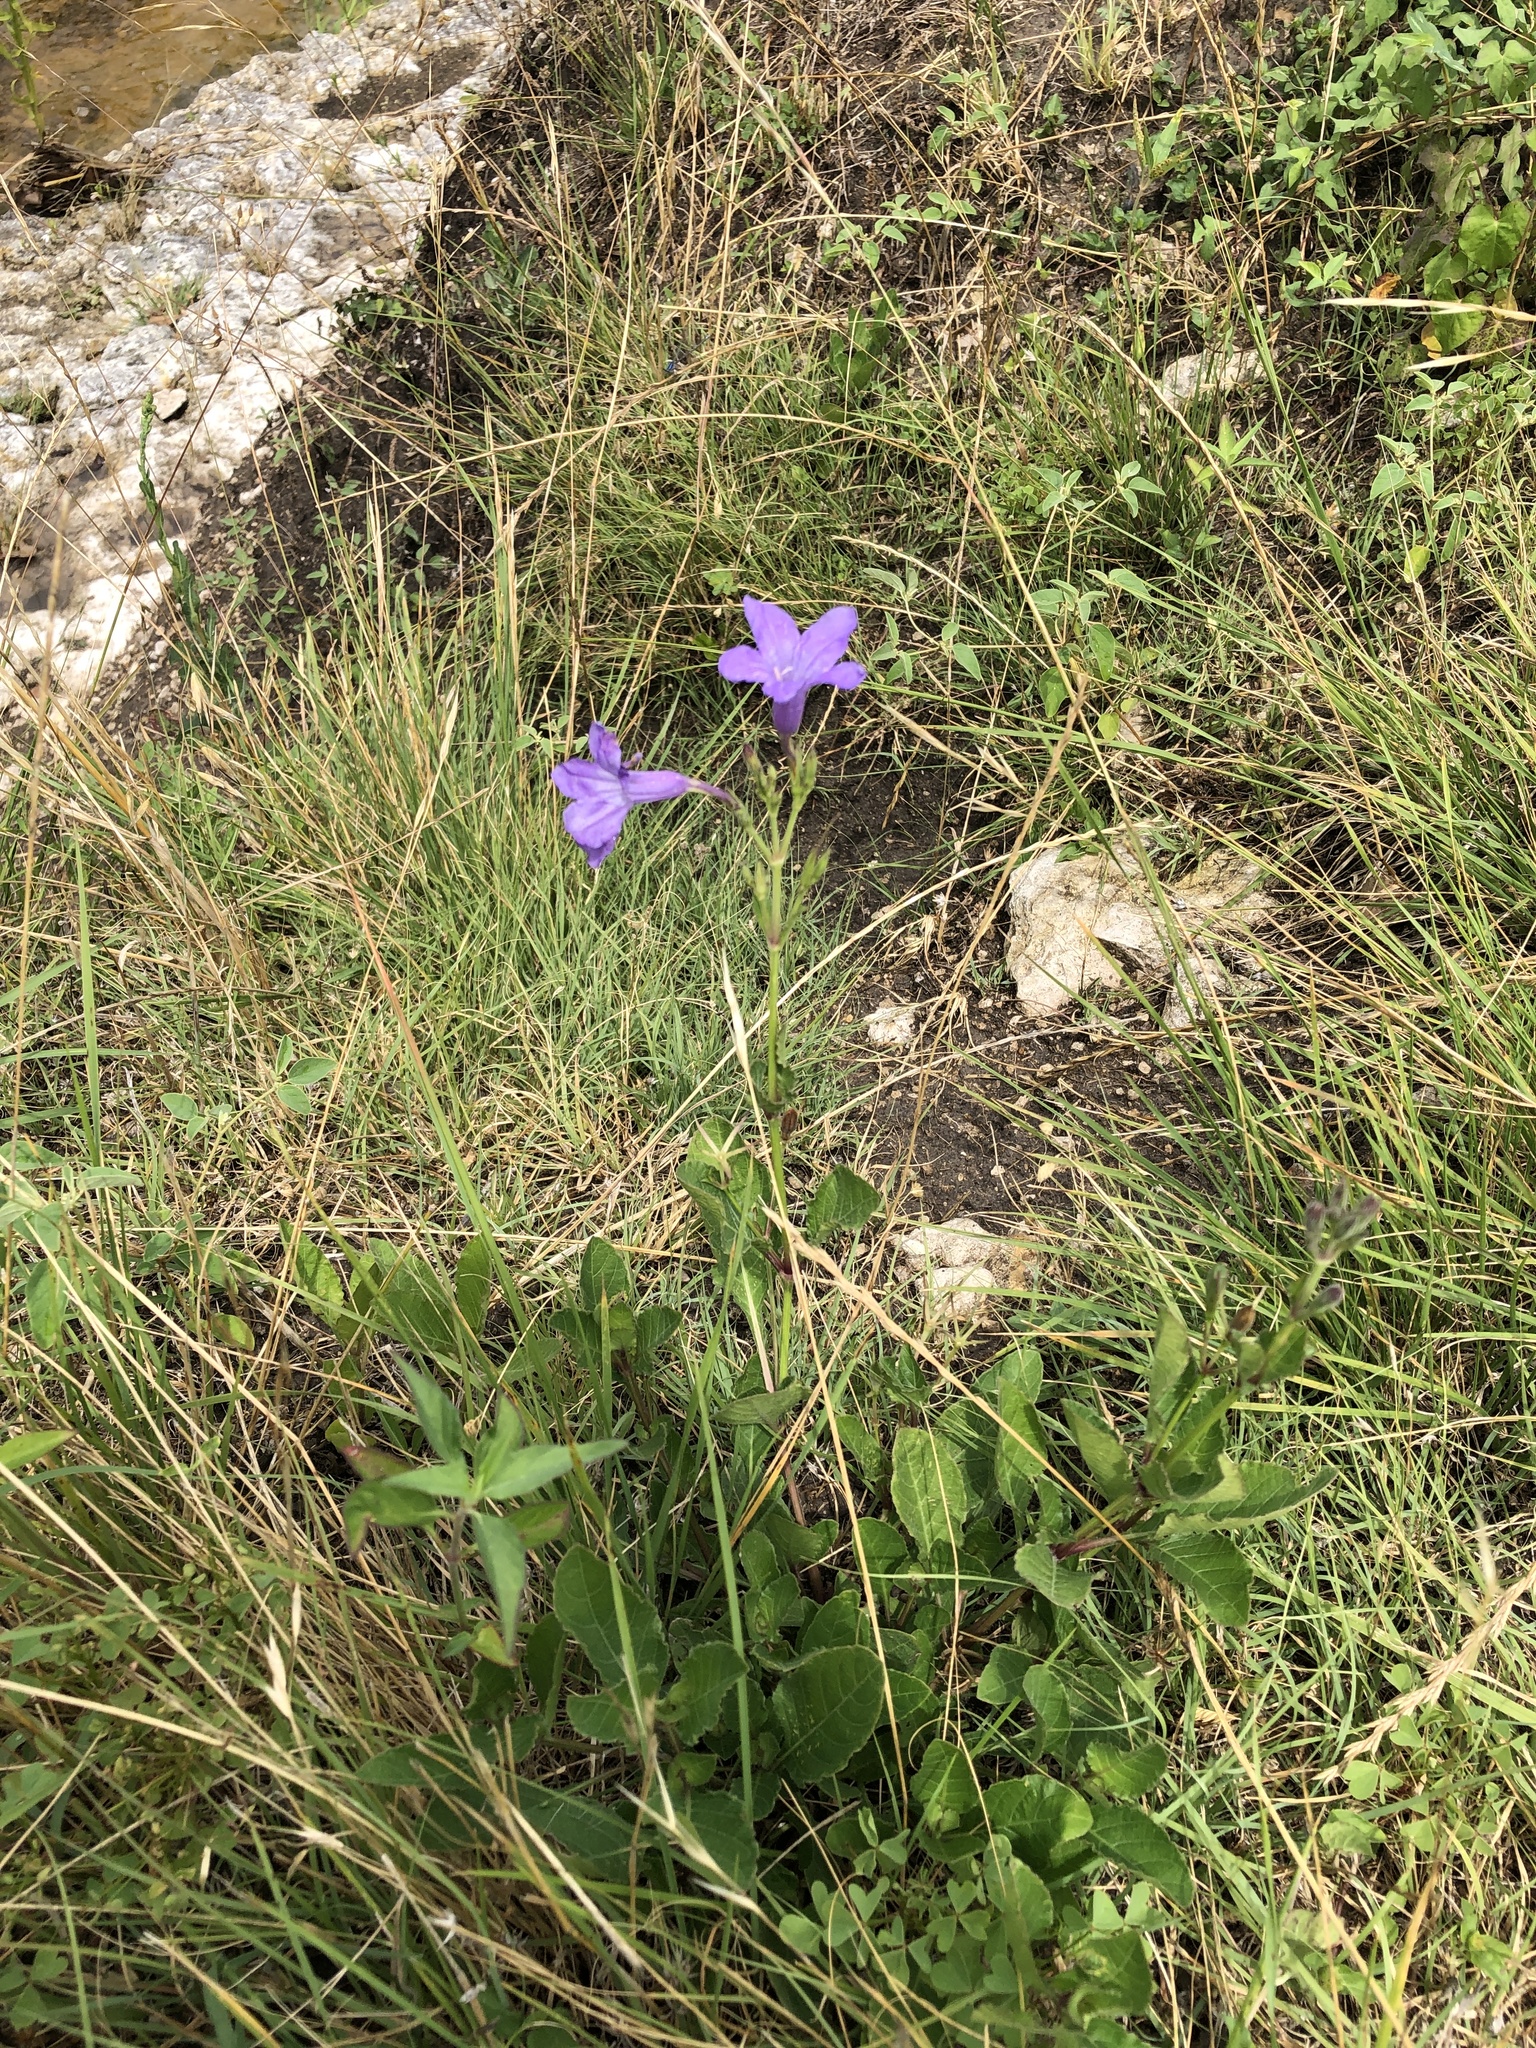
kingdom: Plantae
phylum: Tracheophyta
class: Magnoliopsida
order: Lamiales
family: Acanthaceae
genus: Ruellia
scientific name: Ruellia ciliatiflora
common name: Hairyflower wild petunia
